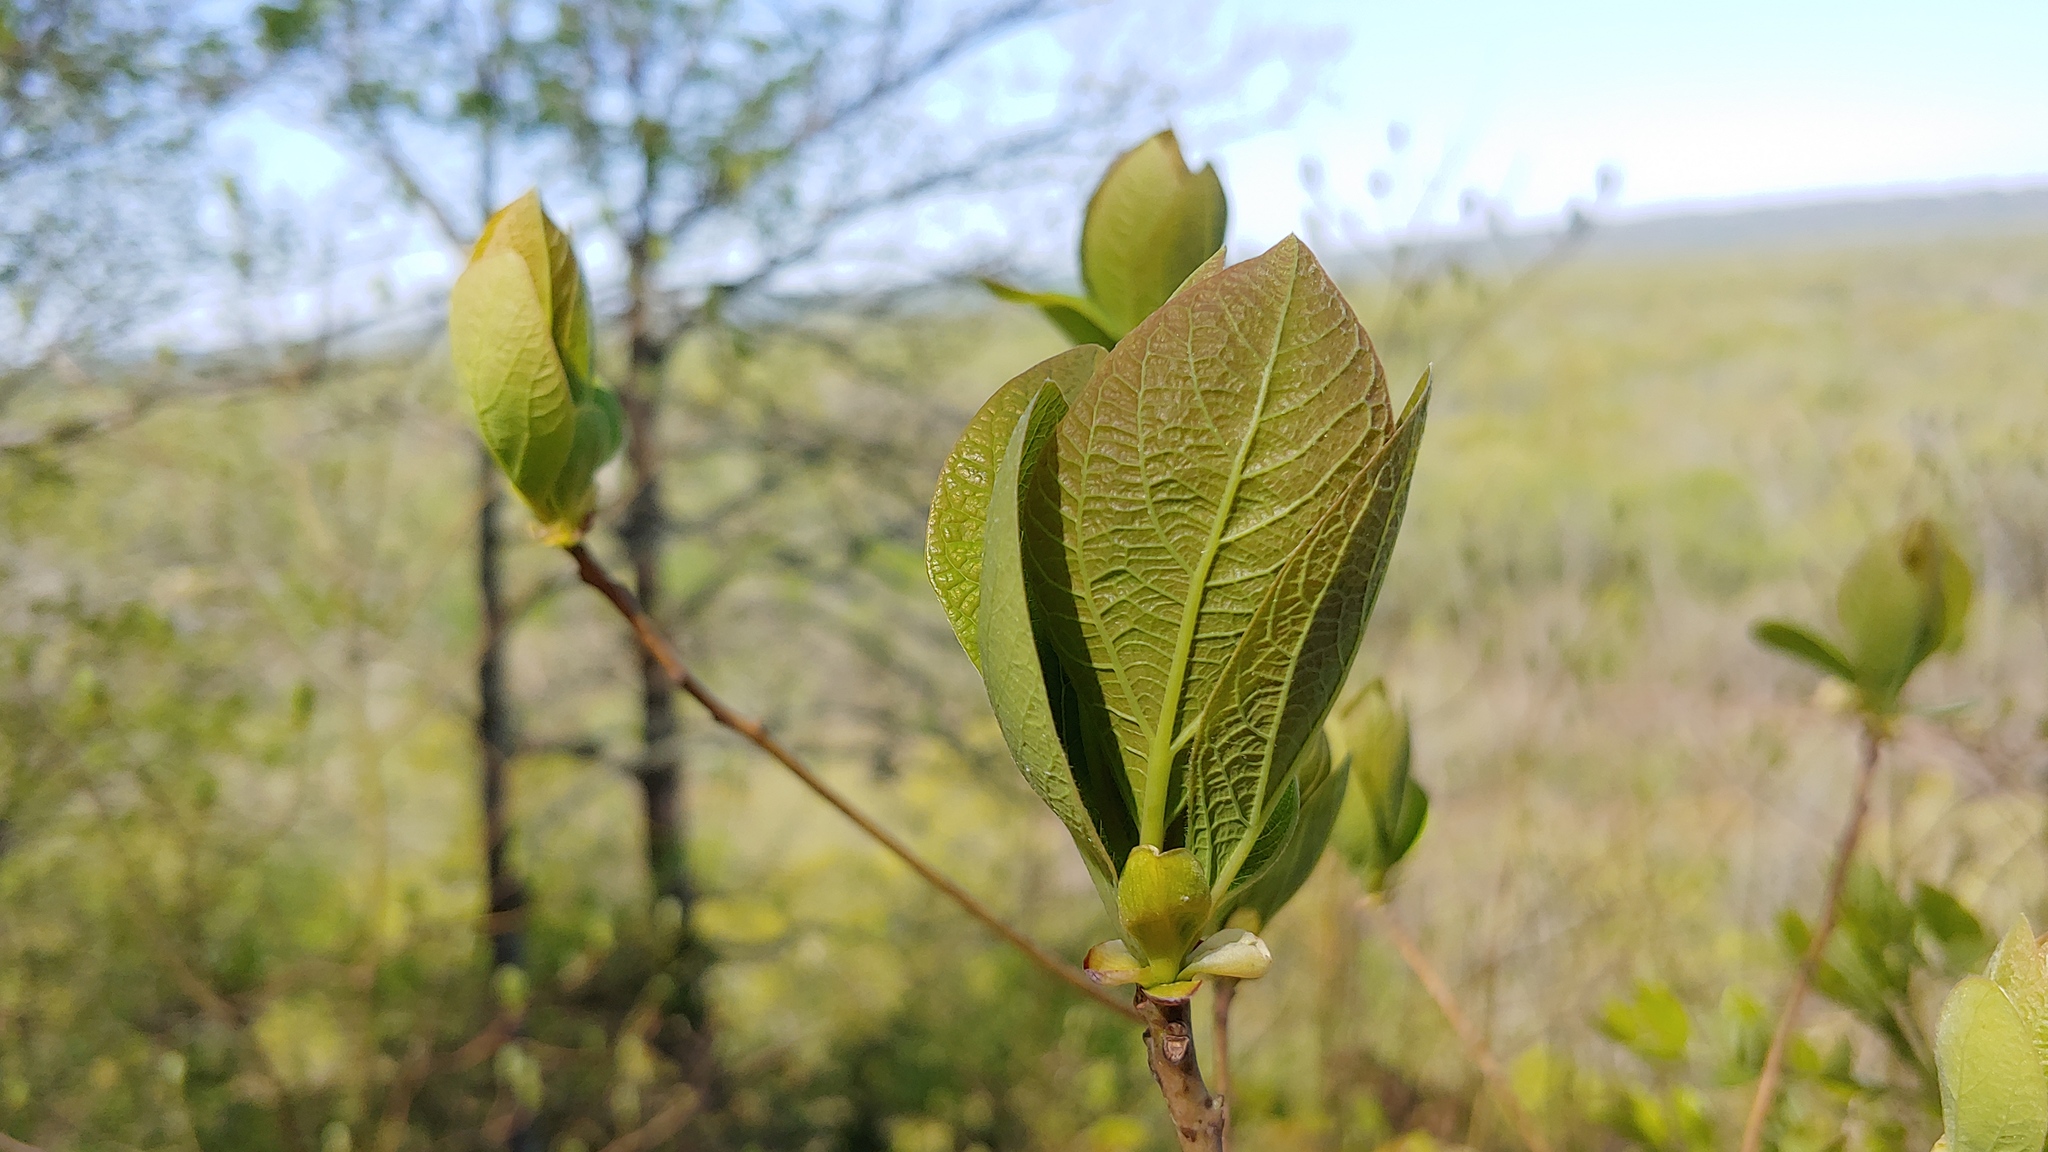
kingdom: Plantae
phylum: Tracheophyta
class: Magnoliopsida
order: Laurales
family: Lauraceae
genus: Sassafras
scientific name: Sassafras albidum
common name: Sassafras
